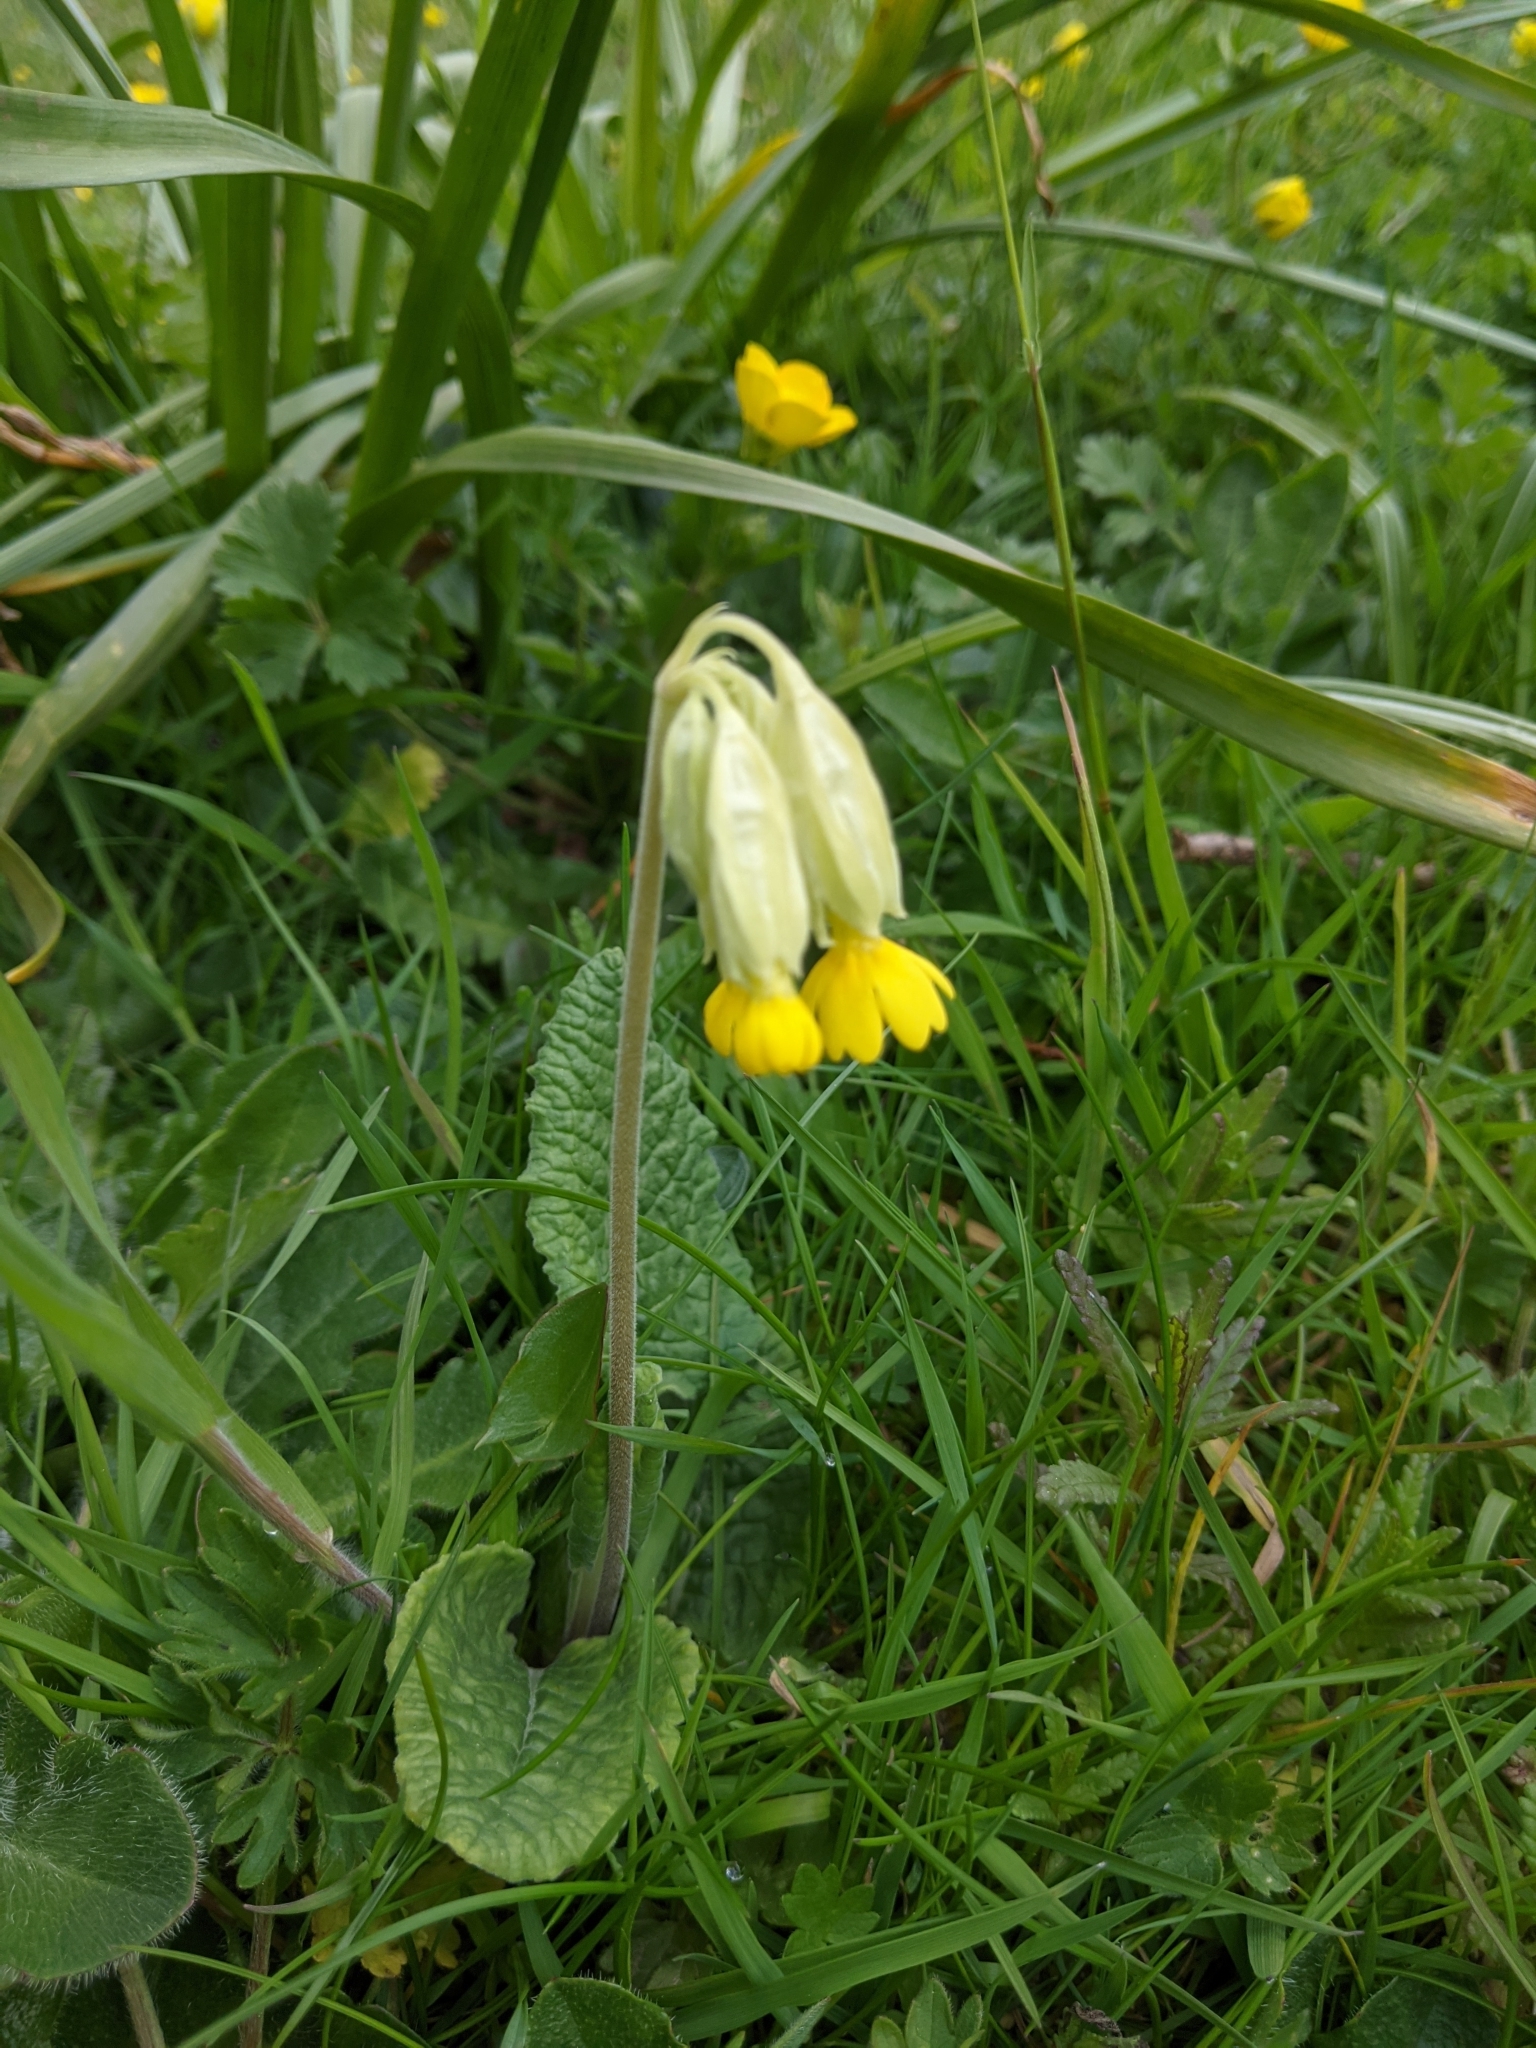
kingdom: Plantae
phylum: Tracheophyta
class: Magnoliopsida
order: Ericales
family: Primulaceae
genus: Primula
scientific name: Primula veris
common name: Cowslip
